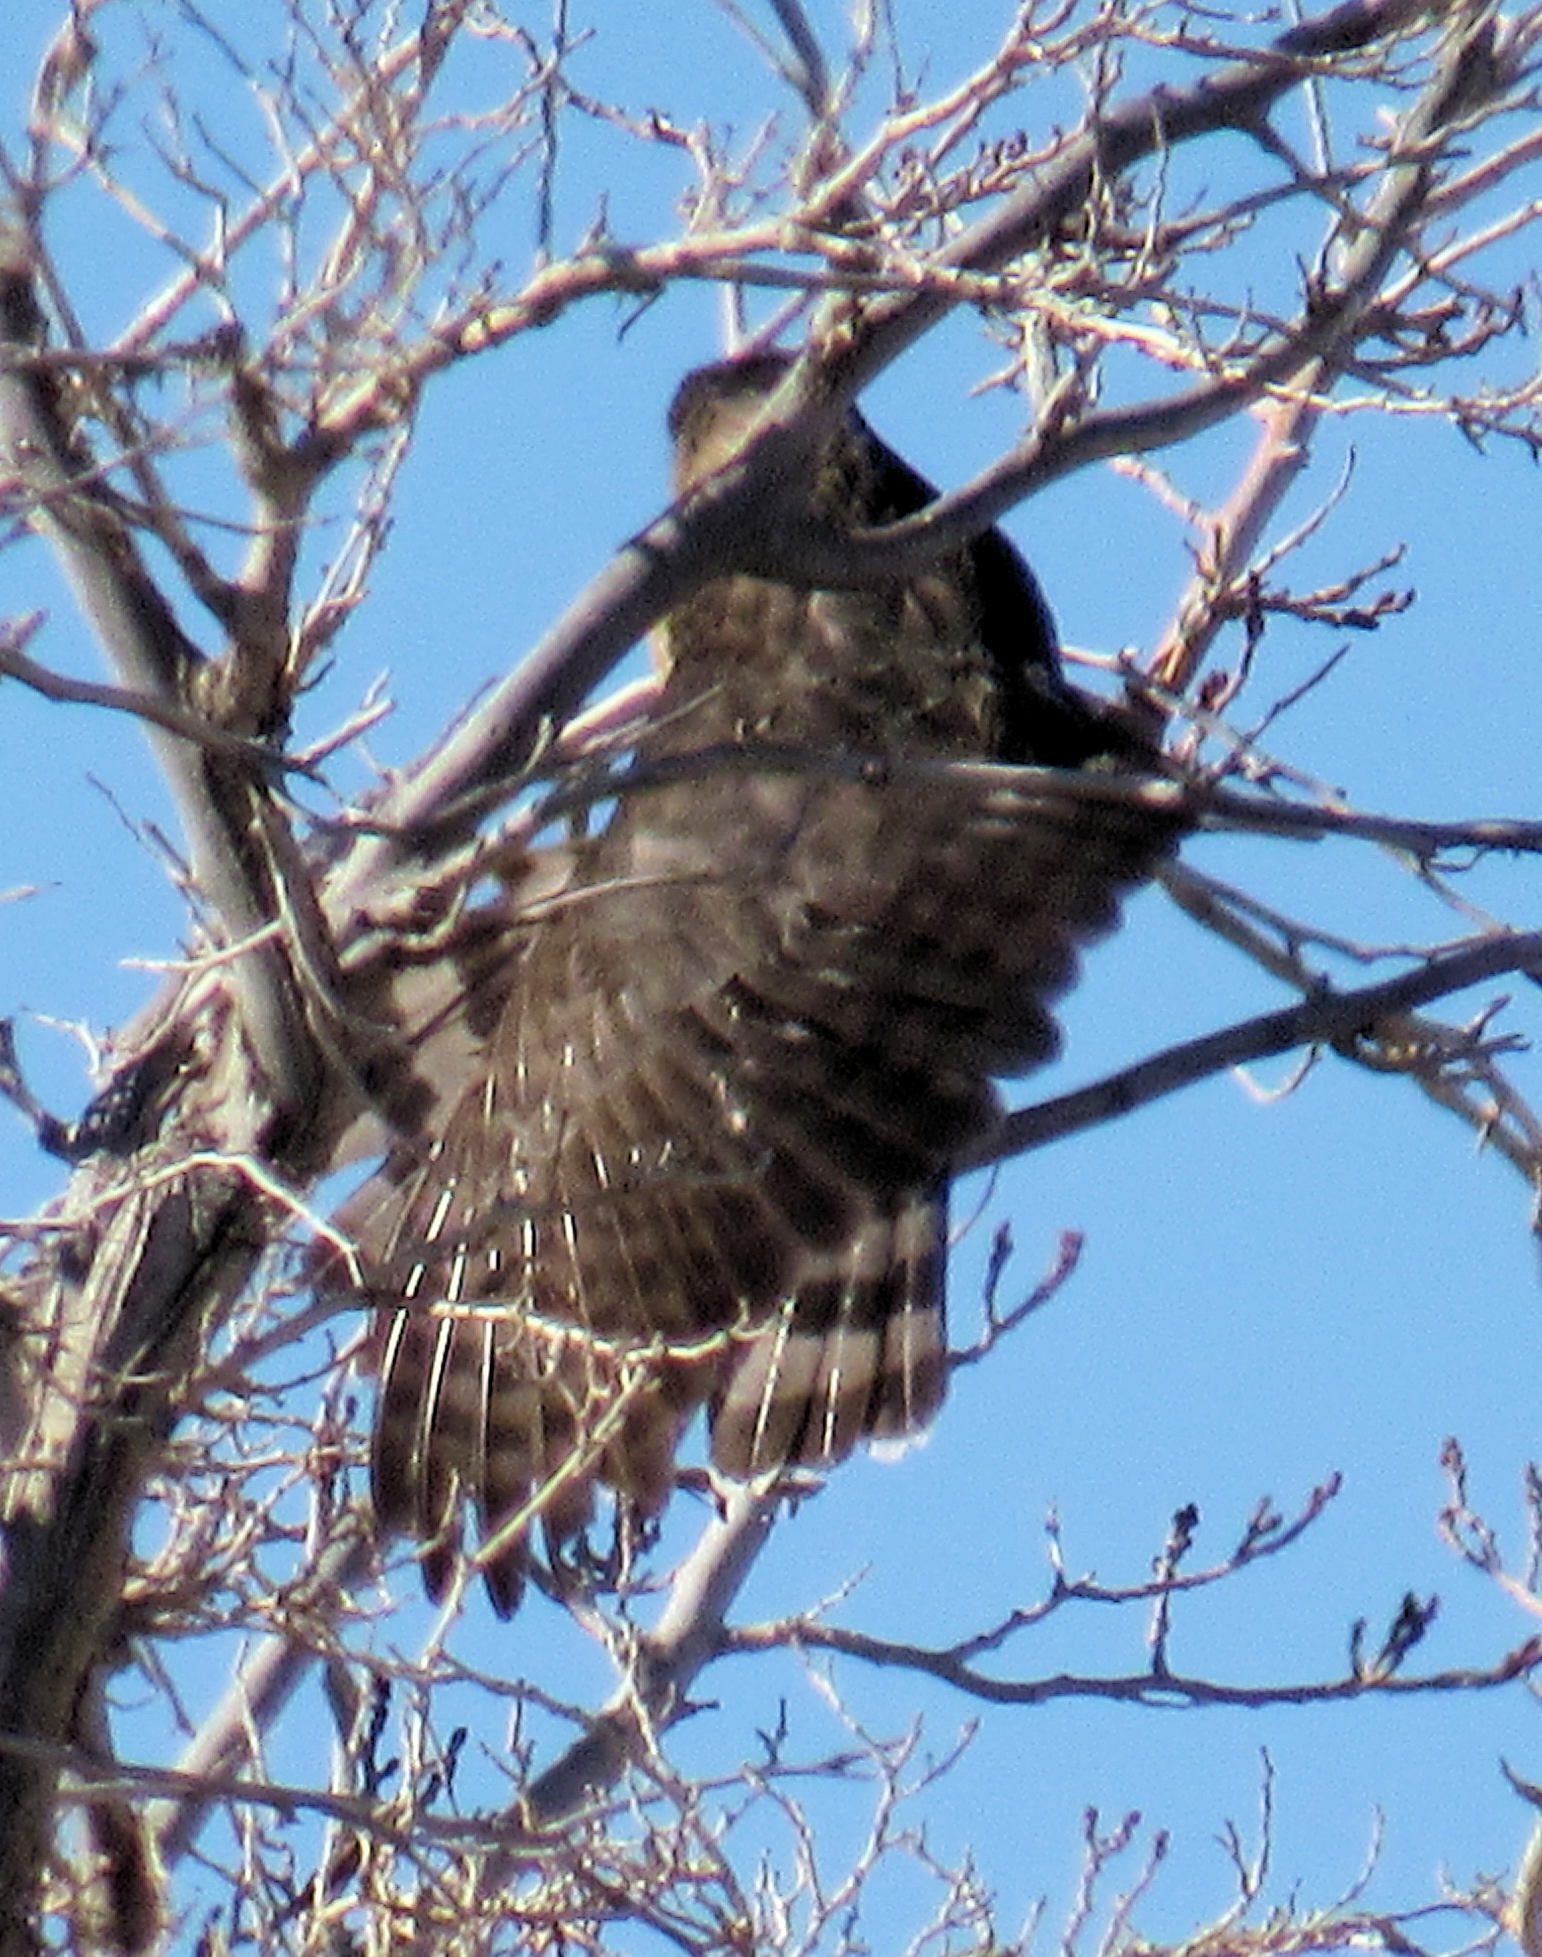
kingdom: Animalia
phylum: Chordata
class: Aves
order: Accipitriformes
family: Accipitridae
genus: Accipiter
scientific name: Accipiter cooperii
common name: Cooper's hawk
